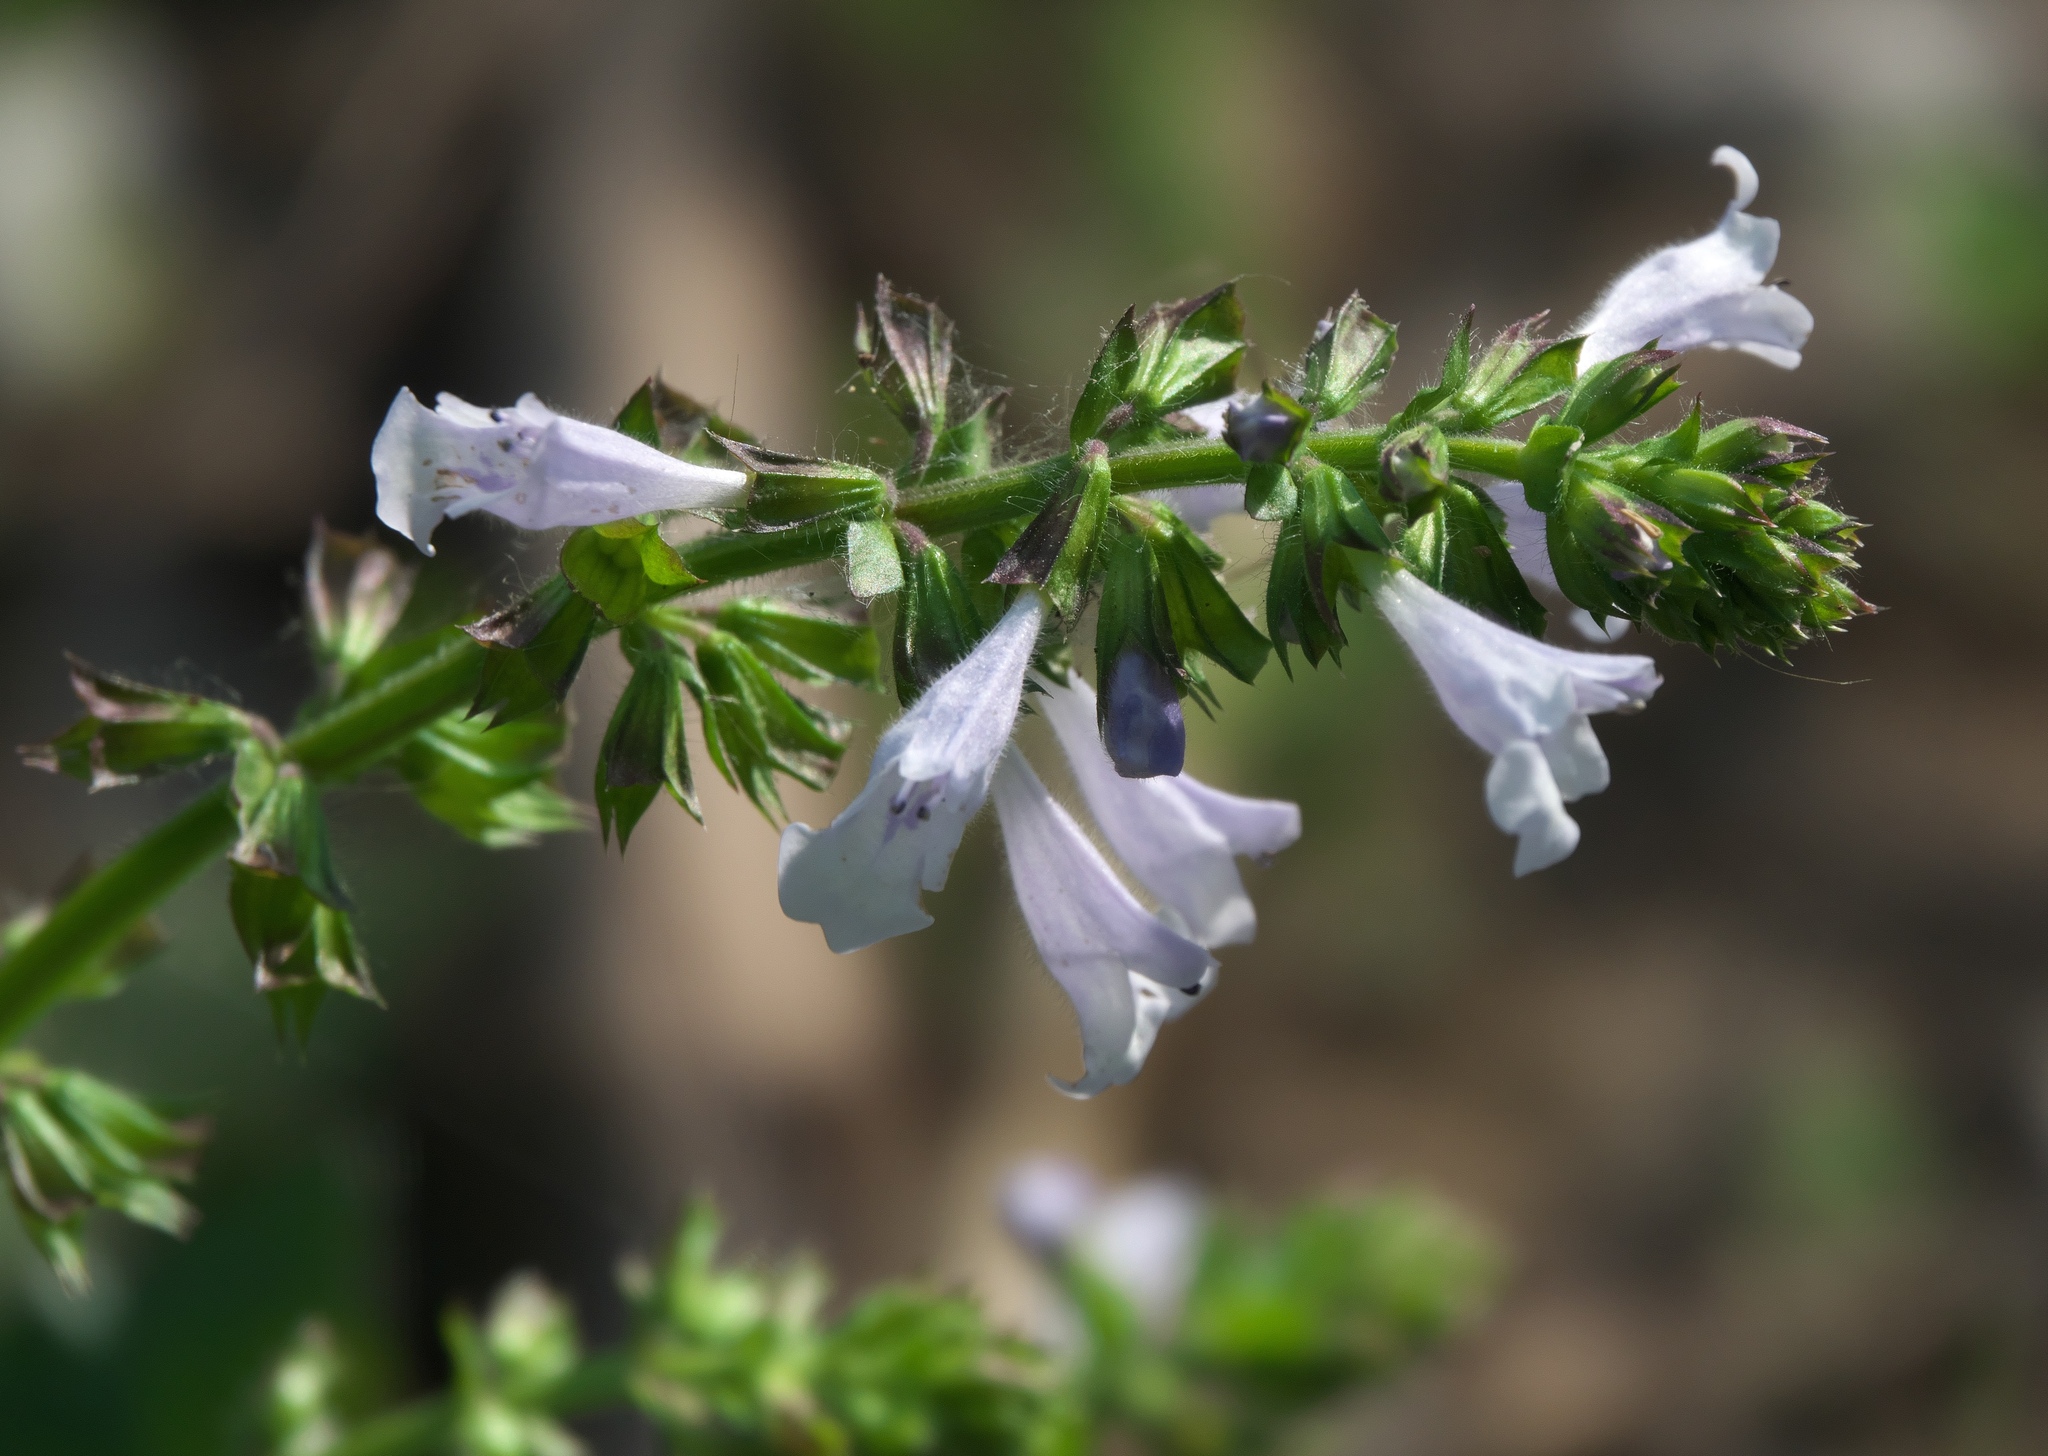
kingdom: Plantae
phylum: Tracheophyta
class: Magnoliopsida
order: Lamiales
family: Lamiaceae
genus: Salvia
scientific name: Salvia lyrata
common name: Cancerweed
